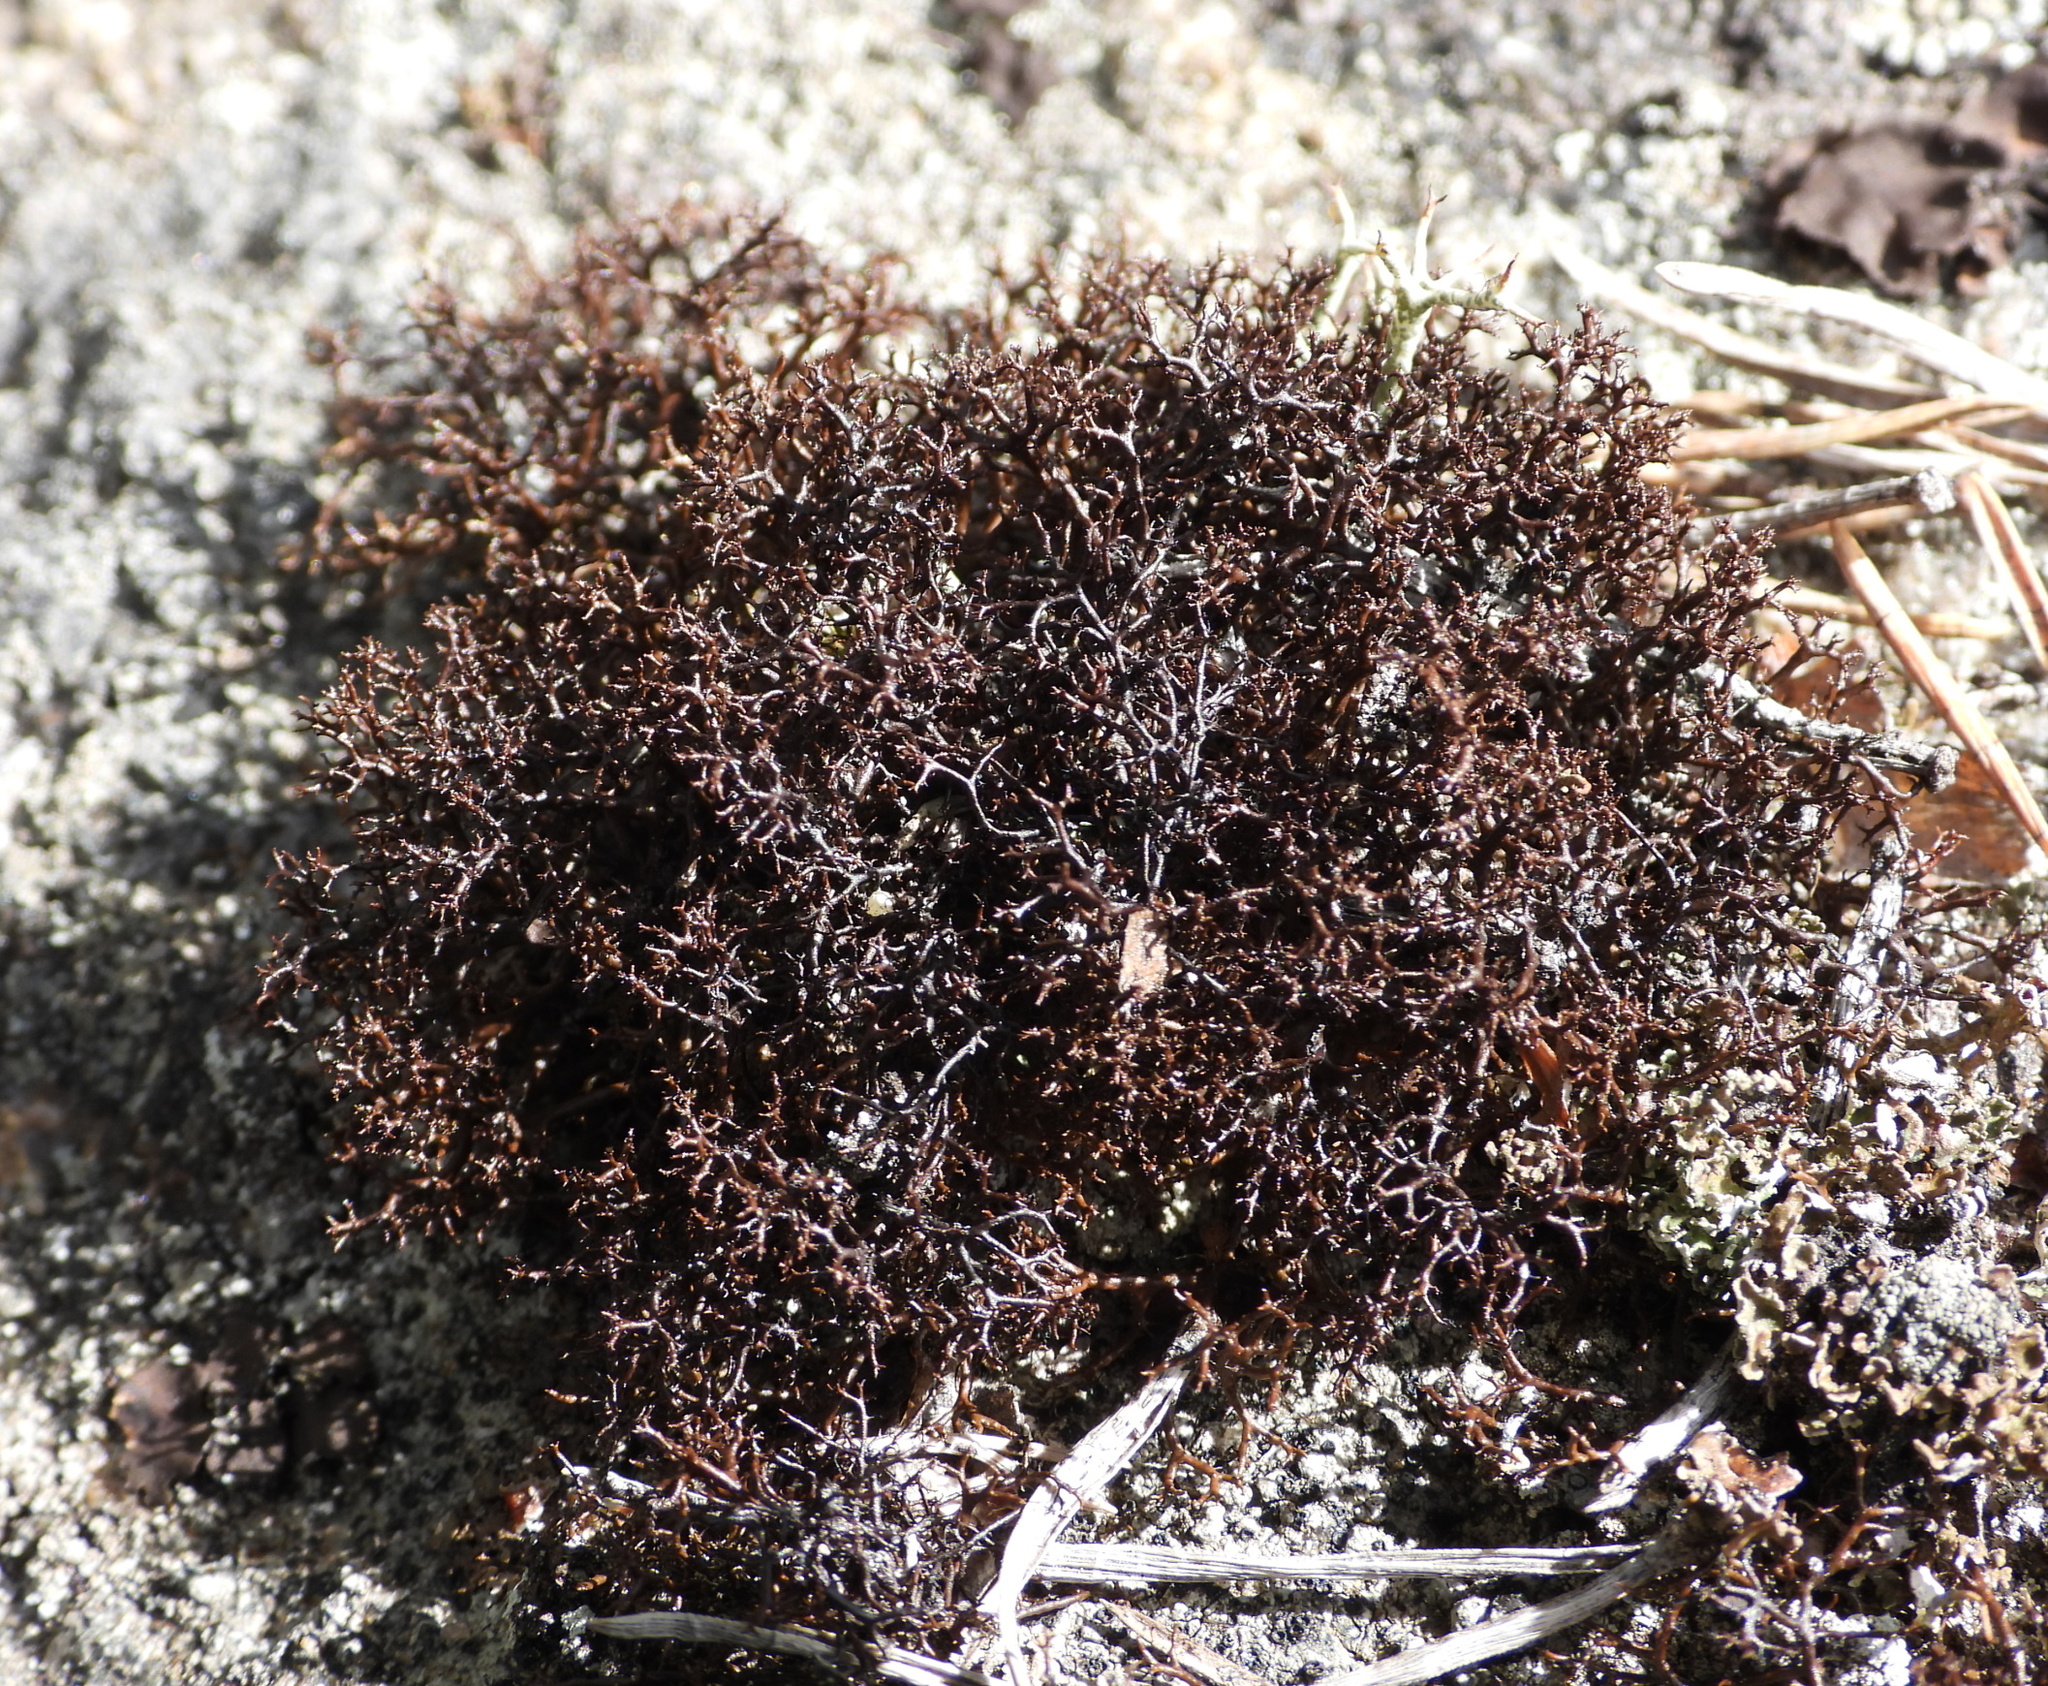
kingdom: Fungi
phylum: Ascomycota
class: Lecanoromycetes
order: Lecanorales
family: Parmeliaceae
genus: Cetraria
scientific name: Cetraria muricata
